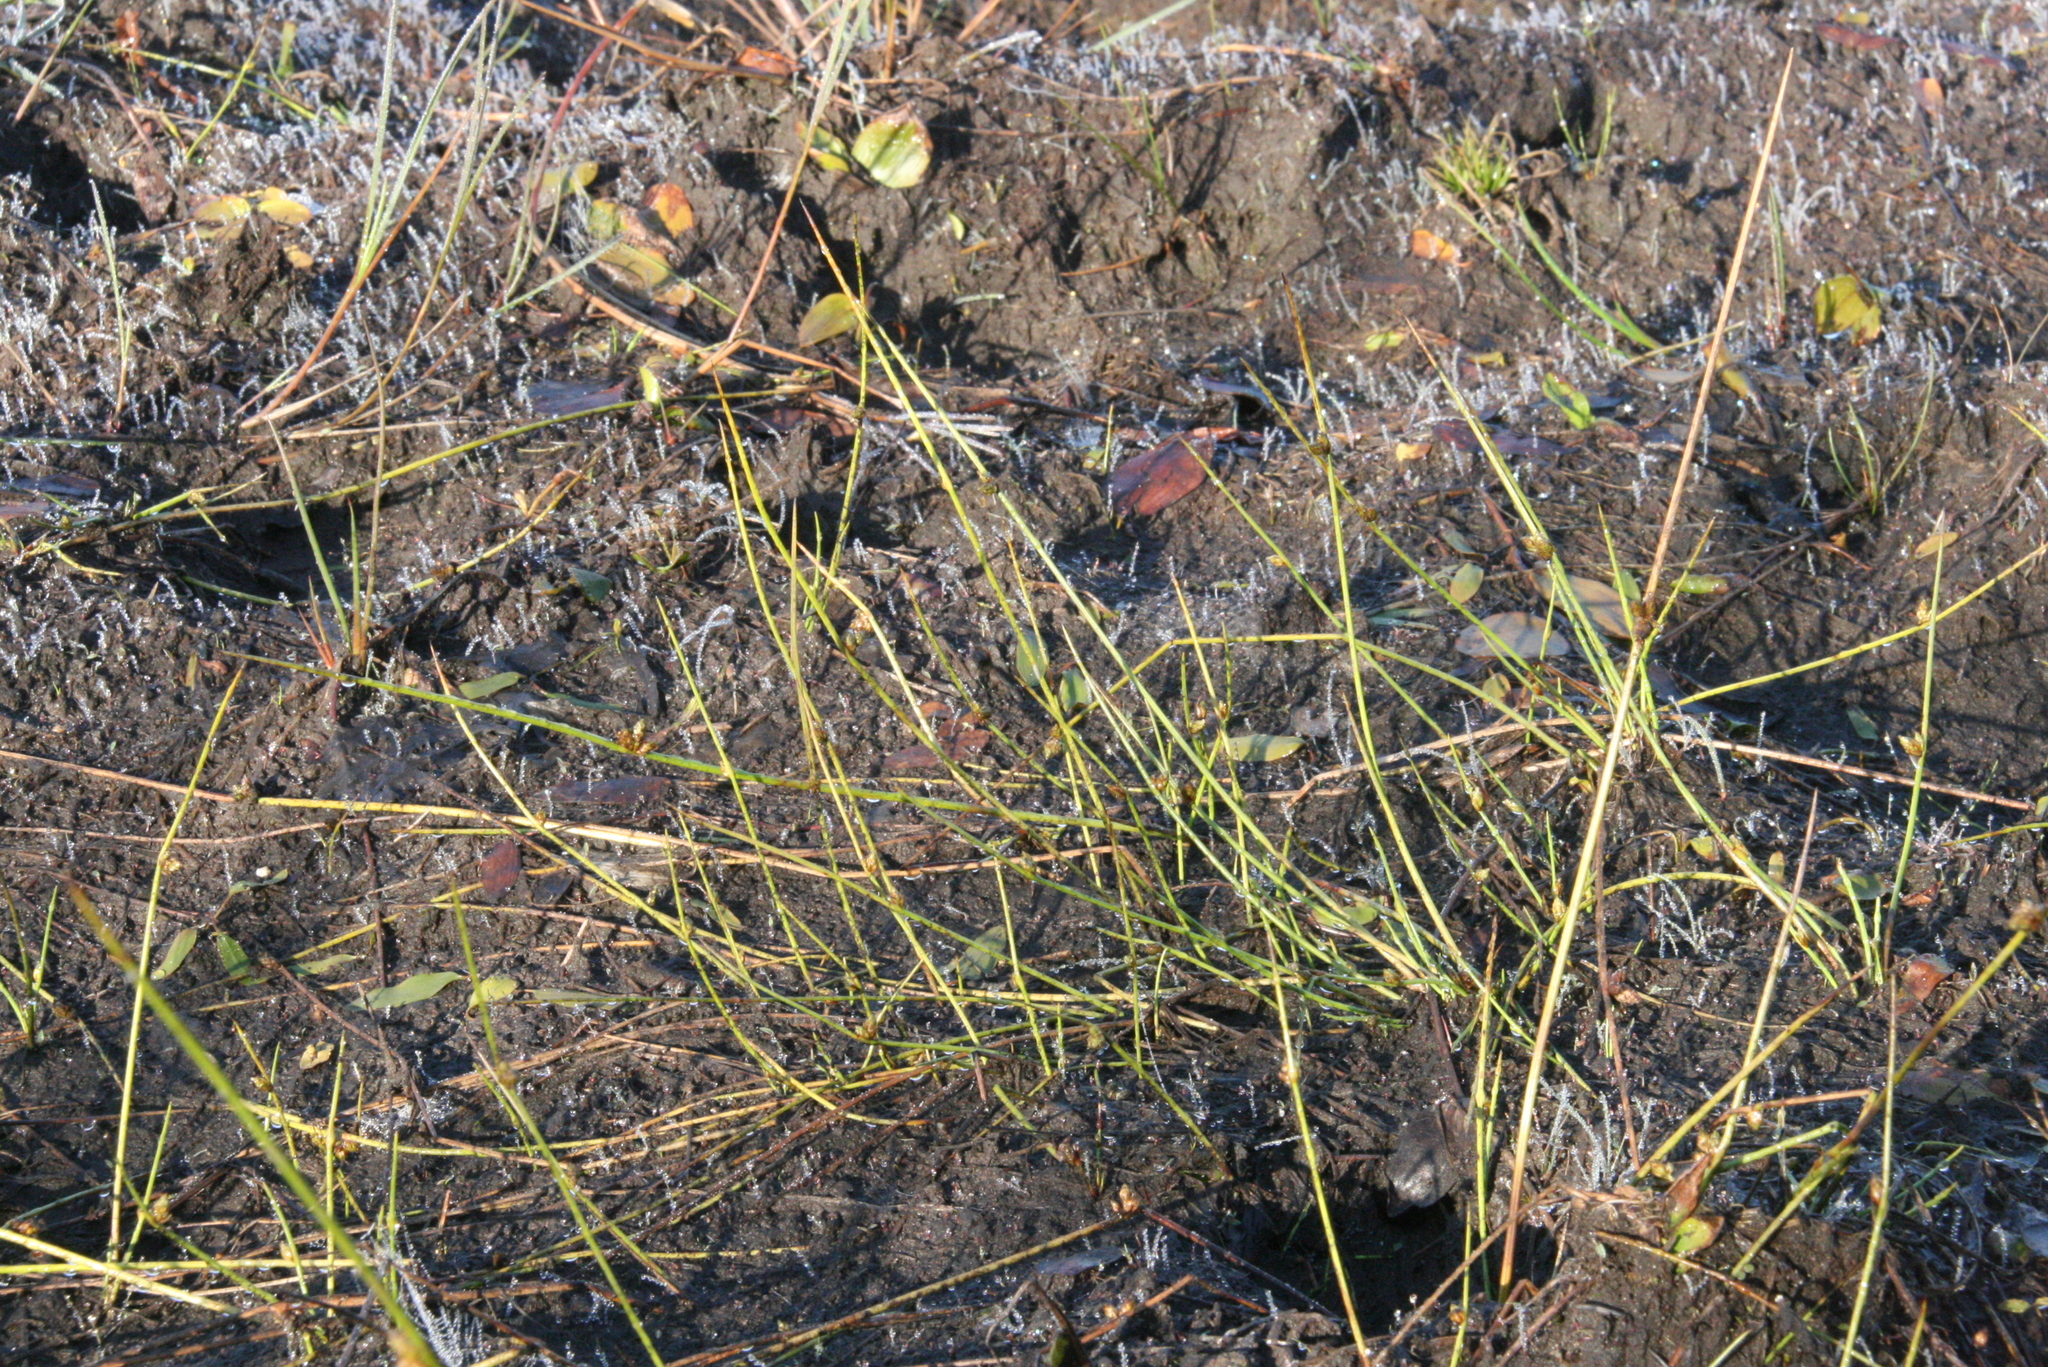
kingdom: Plantae
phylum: Tracheophyta
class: Liliopsida
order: Poales
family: Cyperaceae
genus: Schoenoplectiella
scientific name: Schoenoplectiella smithii
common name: Smith's bulrush
